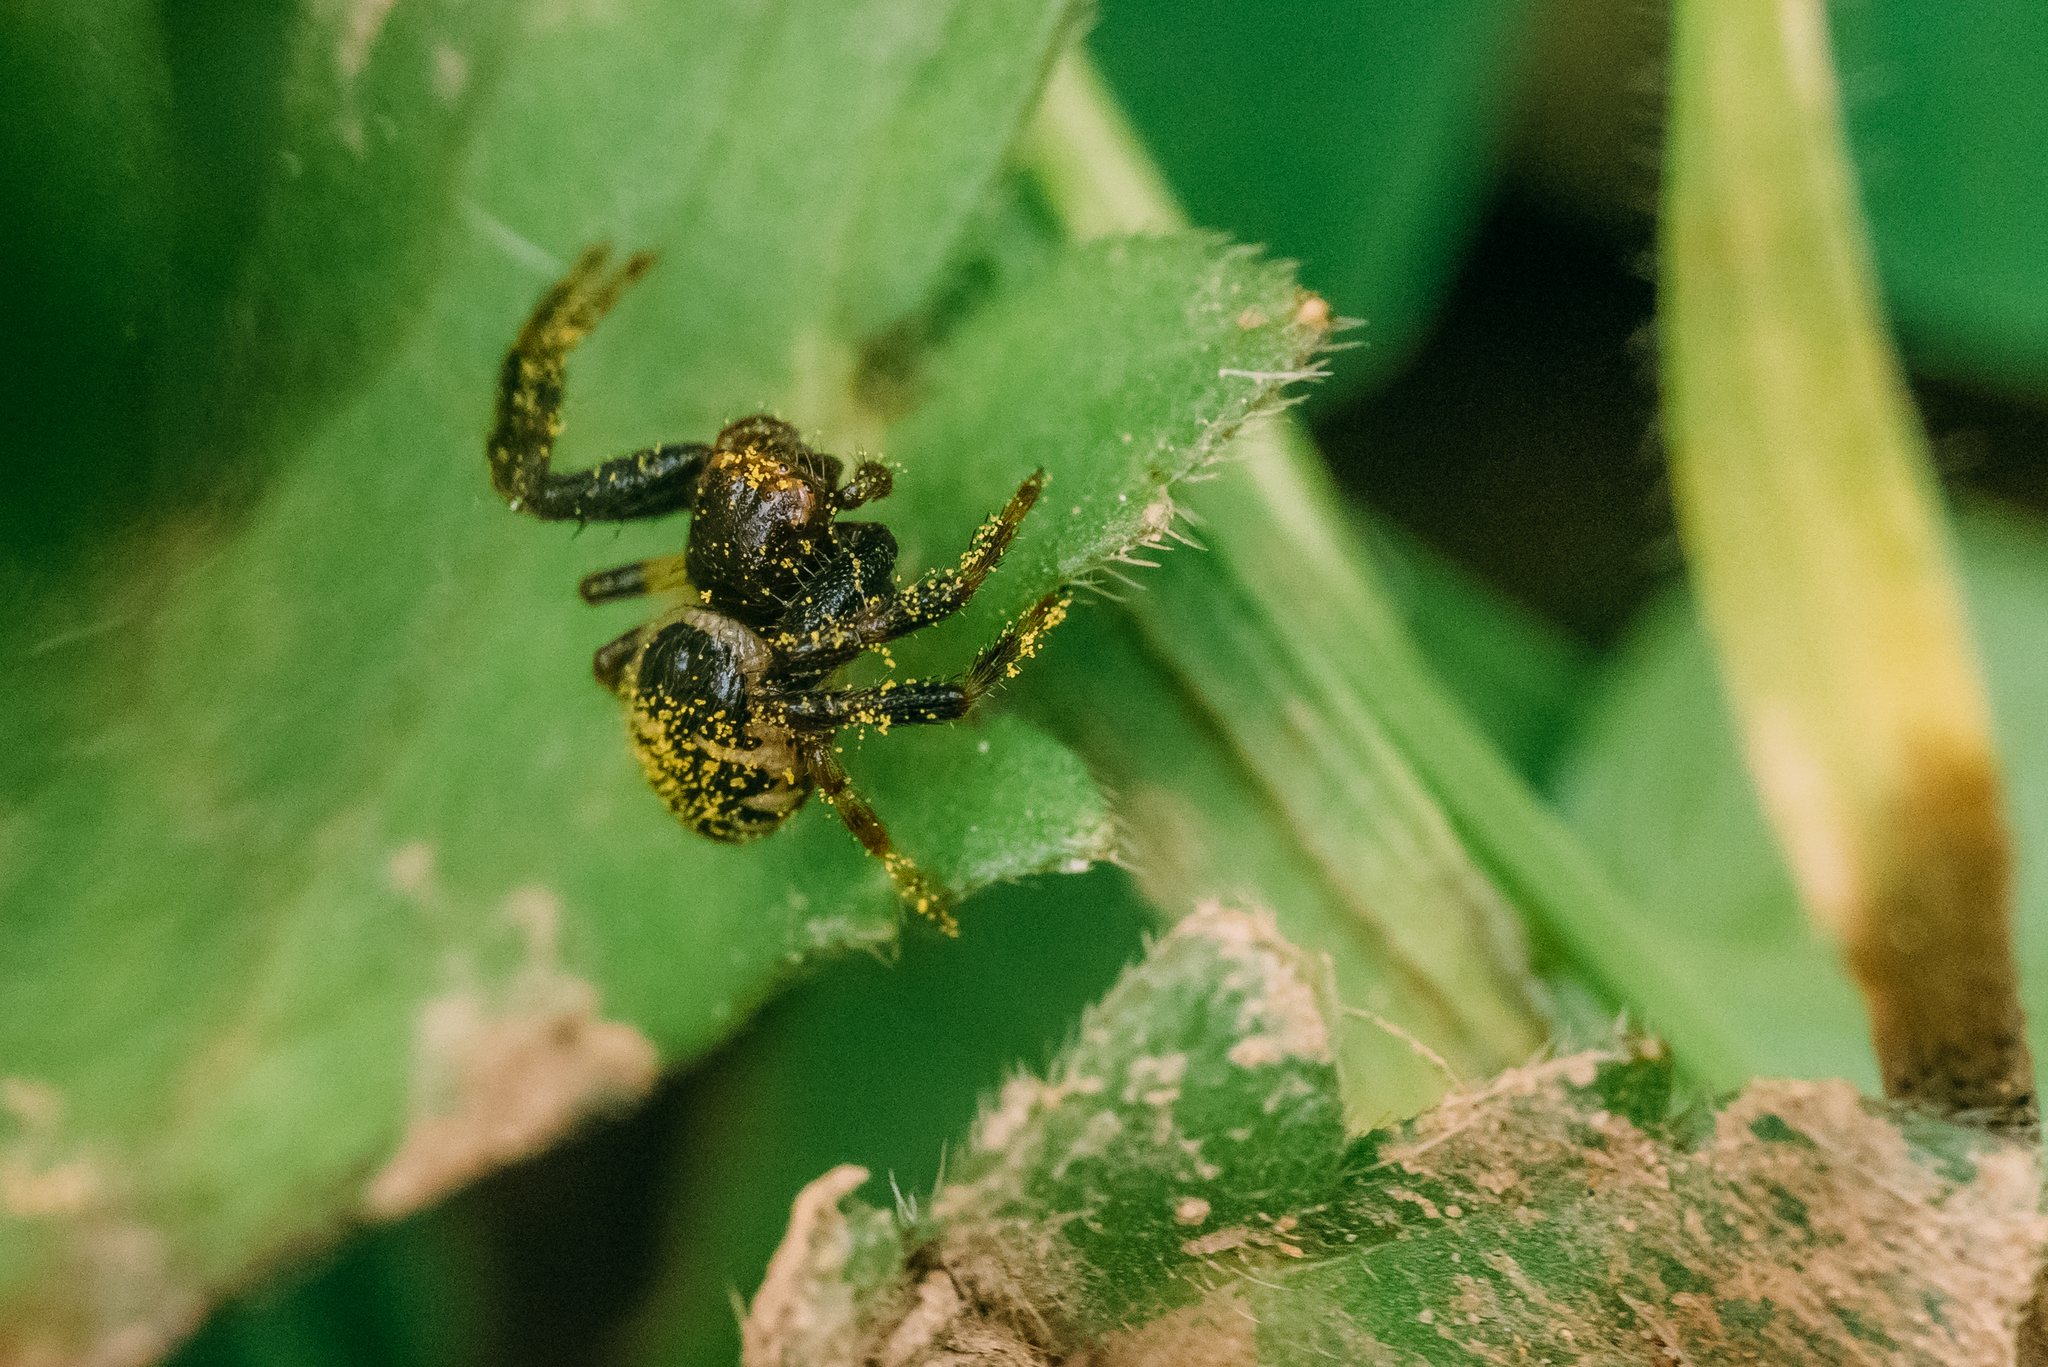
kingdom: Animalia
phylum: Arthropoda
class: Arachnida
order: Araneae
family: Thomisidae
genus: Synema
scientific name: Synema globosum
